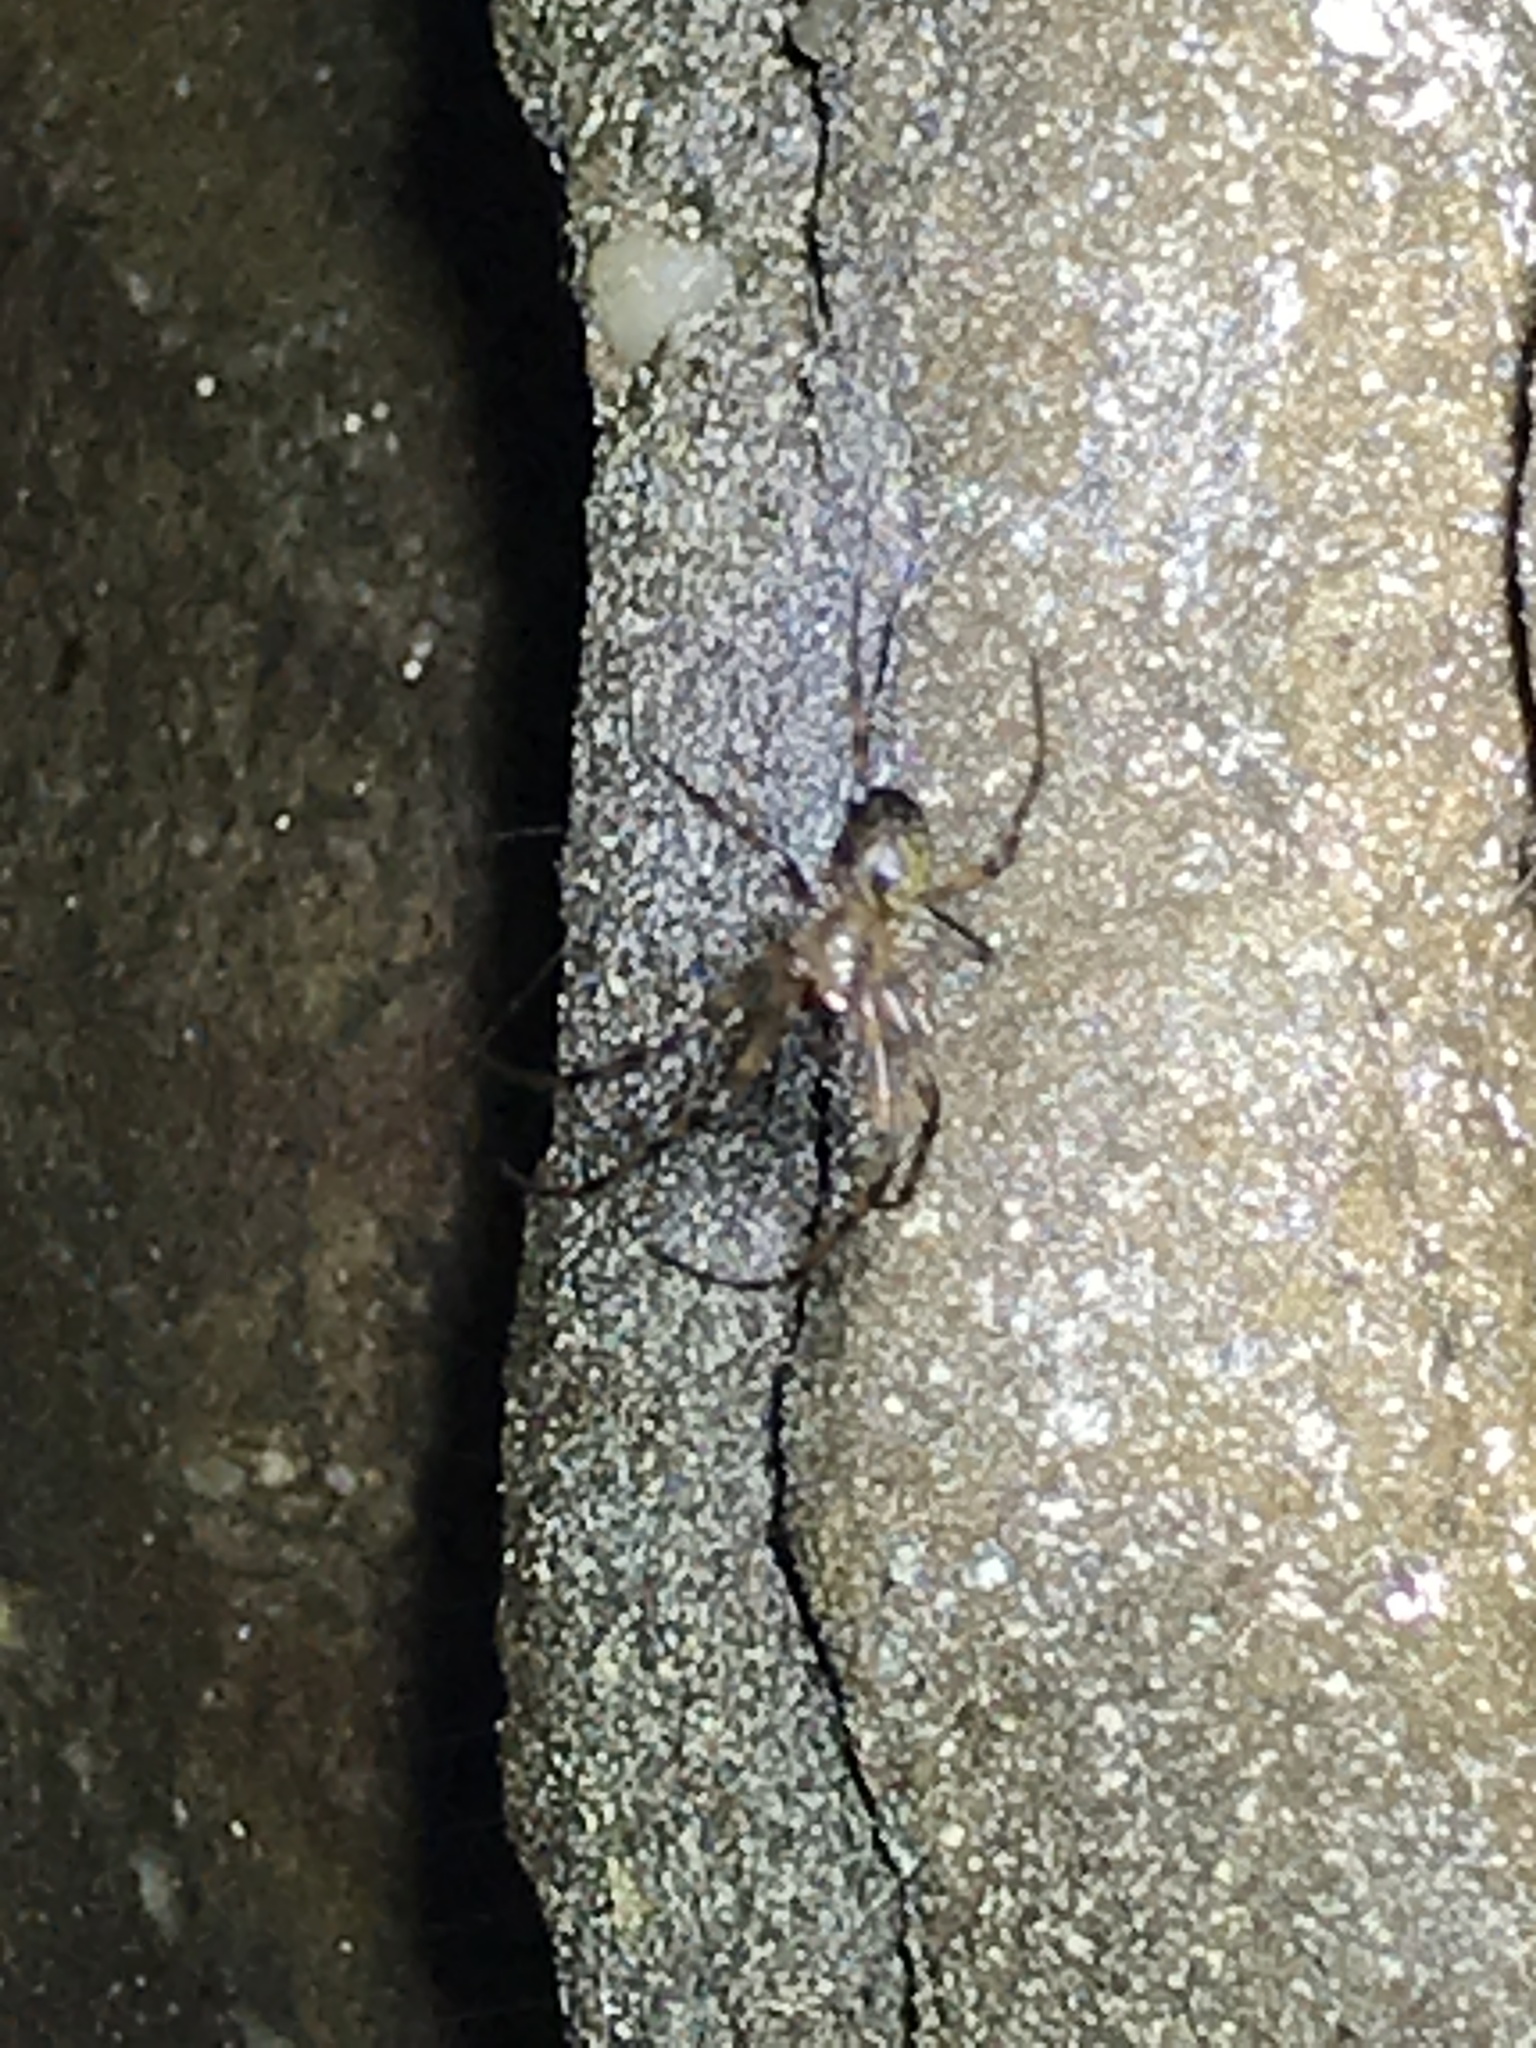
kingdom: Animalia
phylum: Arthropoda
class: Arachnida
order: Araneae
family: Tetragnathidae
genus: Meta
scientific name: Meta ovalis
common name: Eastern cave long-jawed spider
